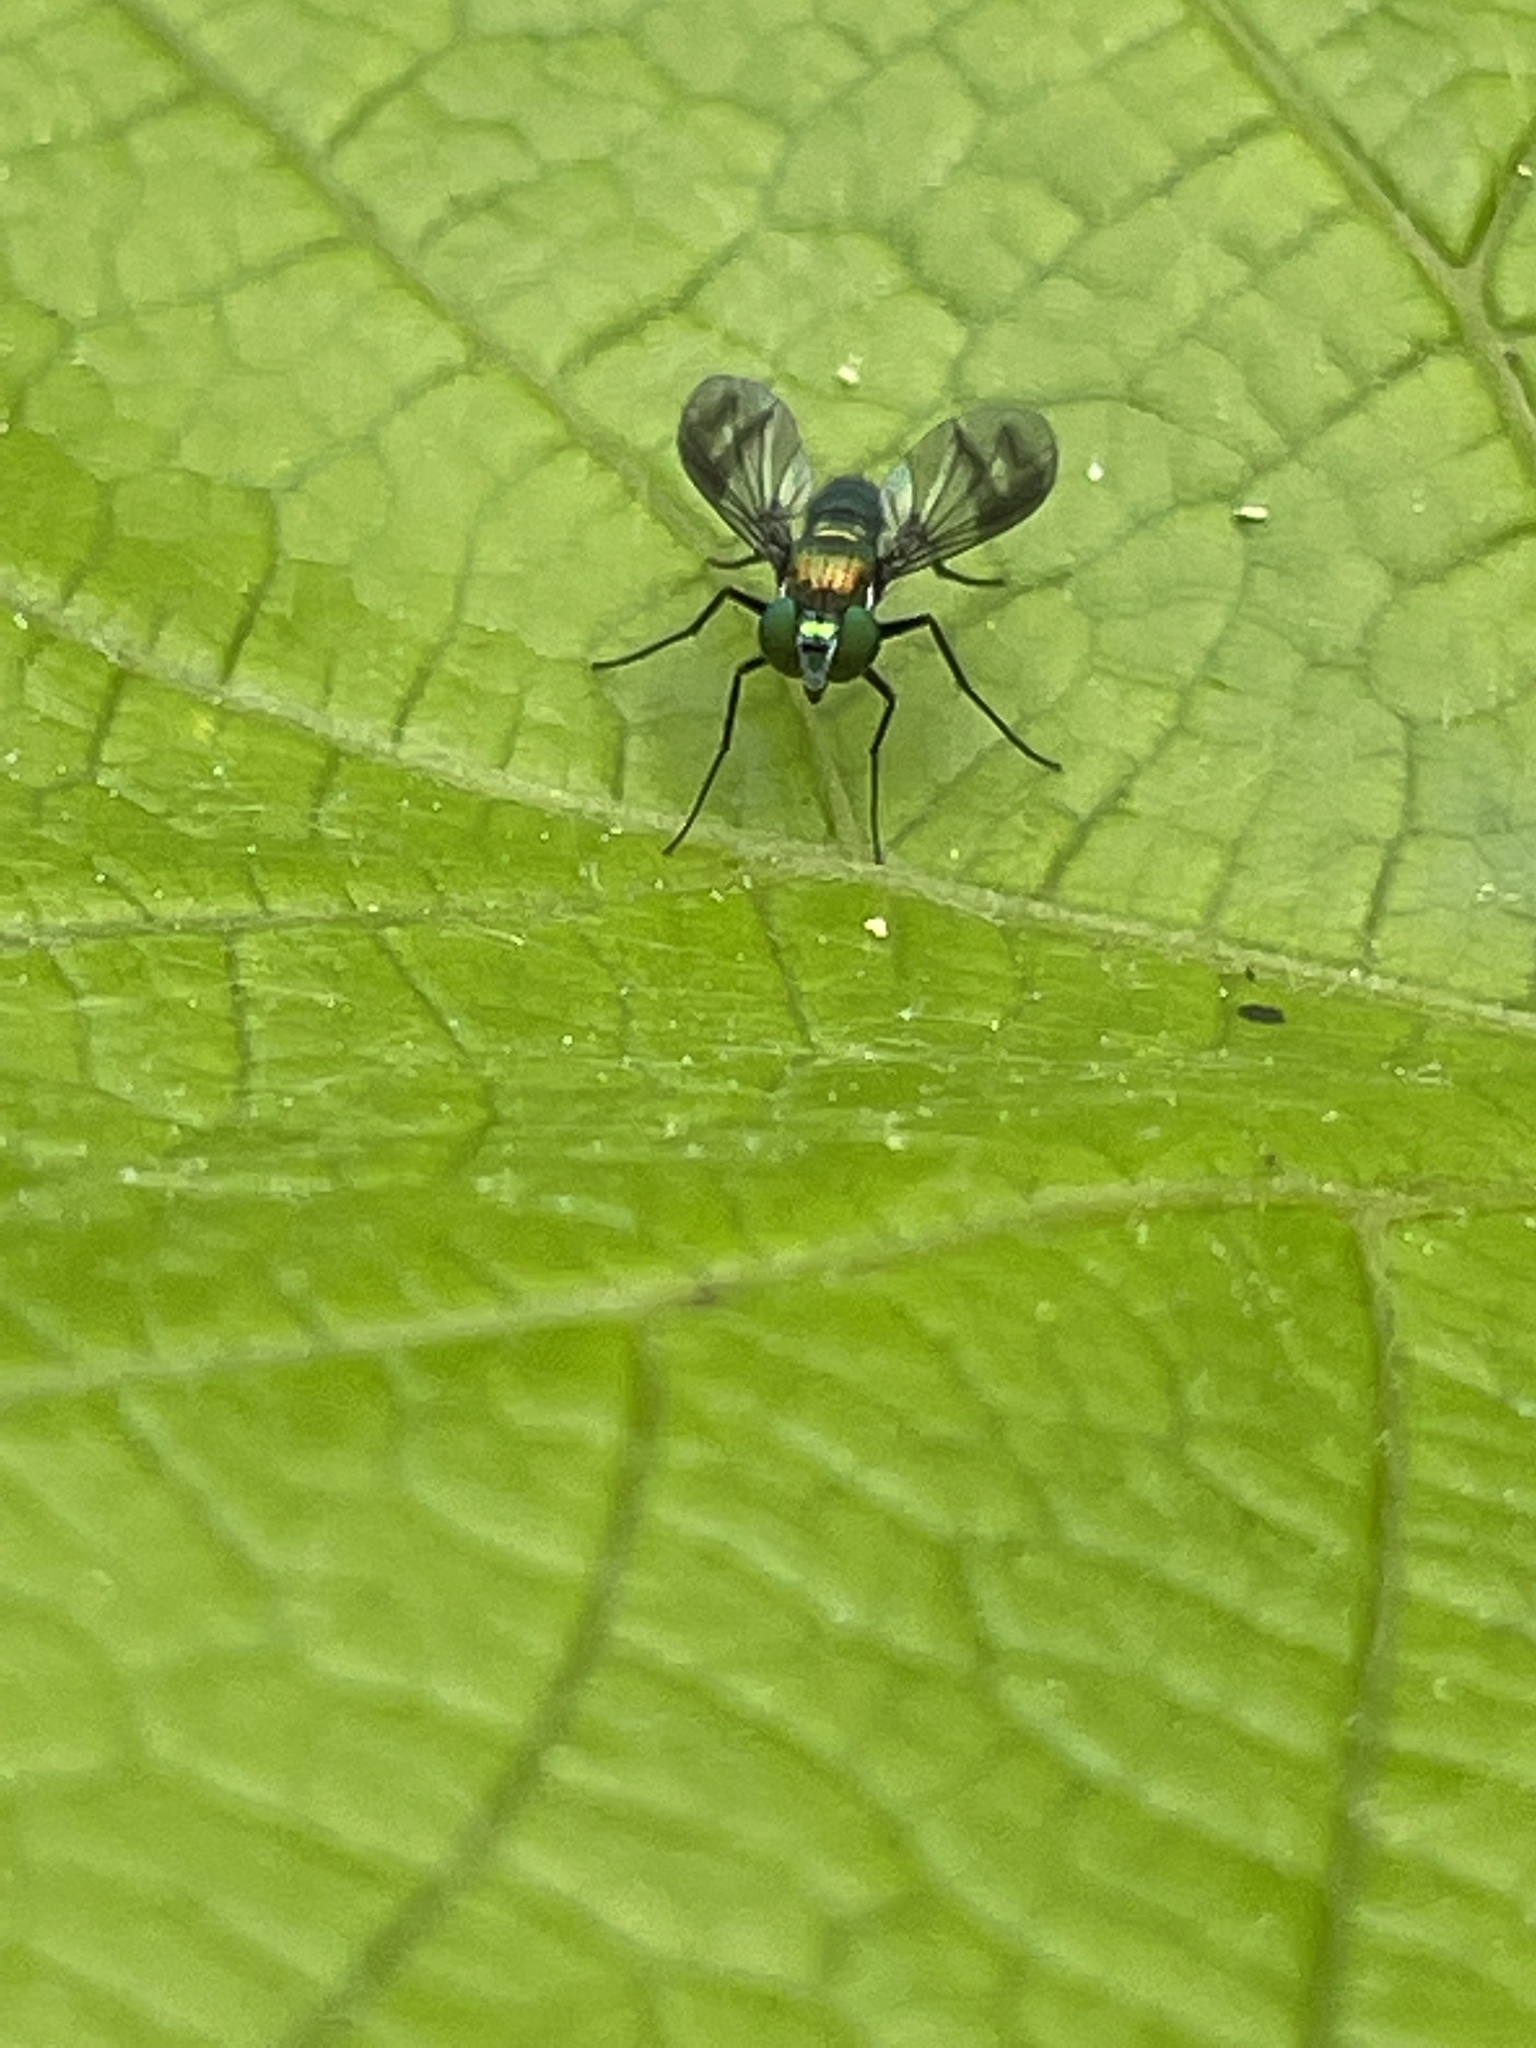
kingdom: Animalia
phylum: Arthropoda
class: Insecta
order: Diptera
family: Dolichopodidae
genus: Condylostylus
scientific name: Condylostylus patibulatus
